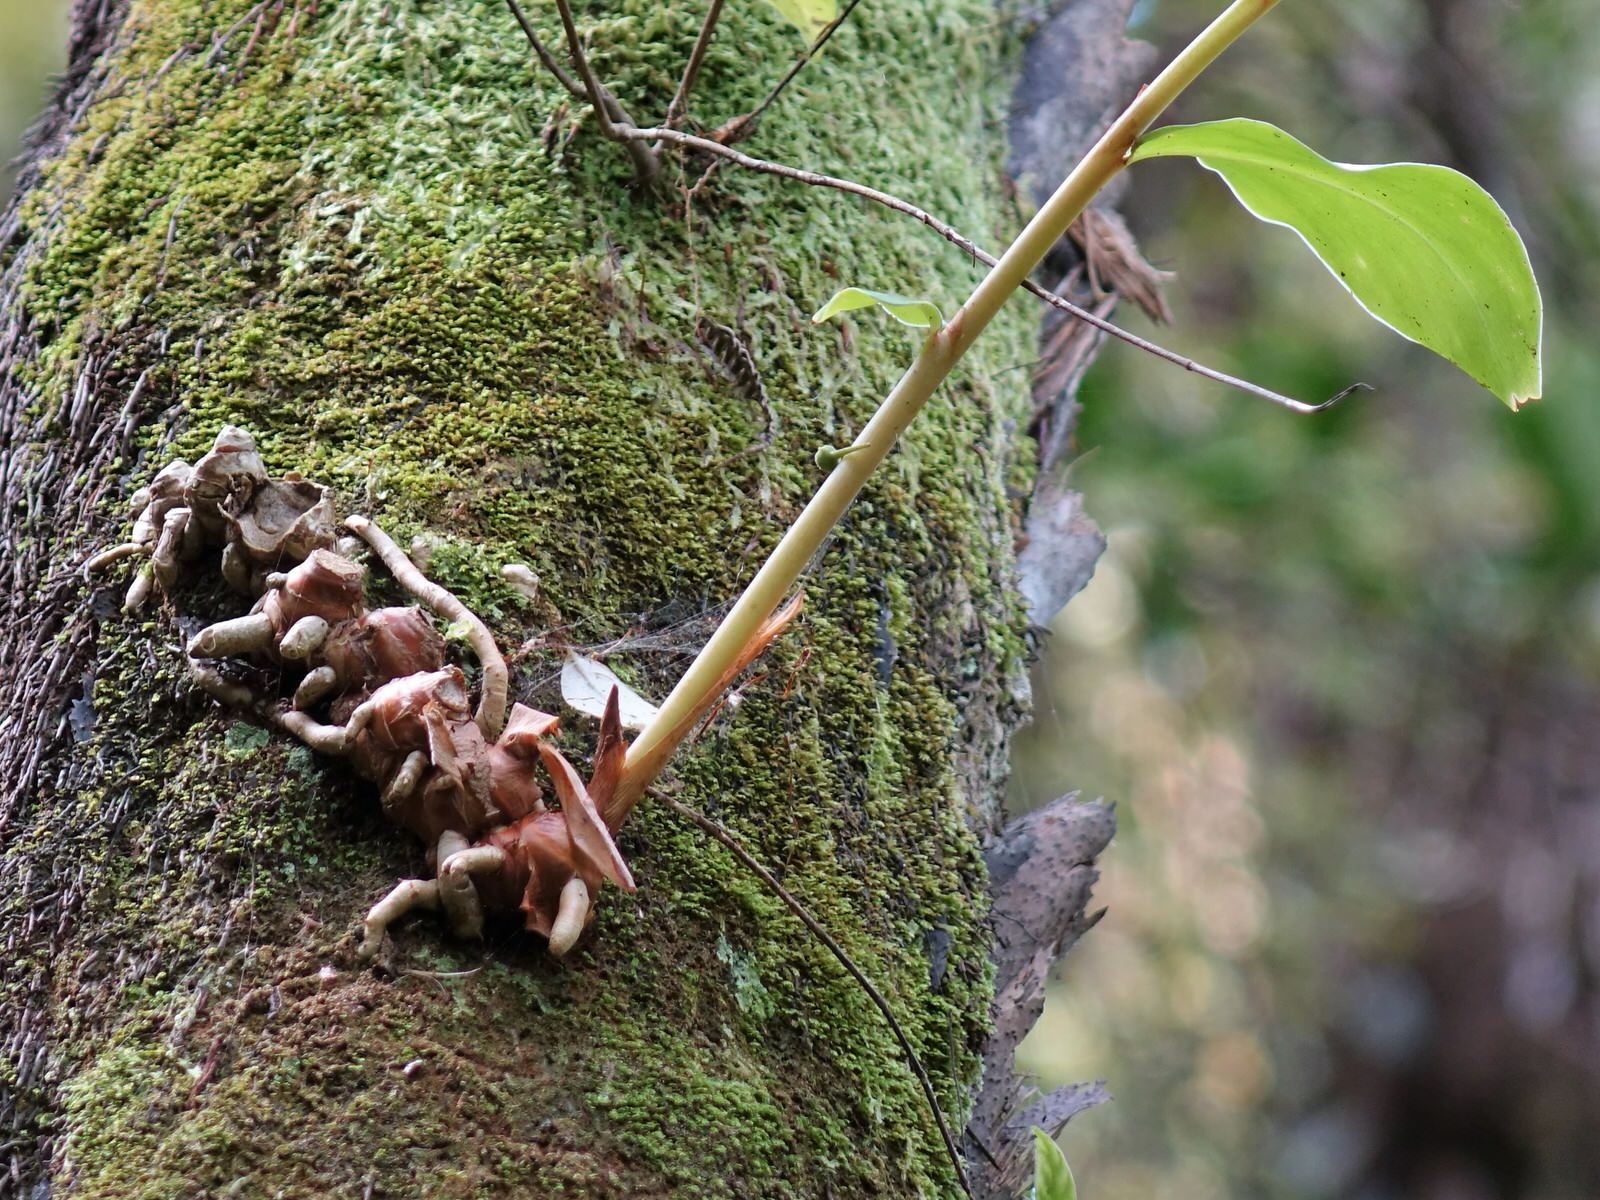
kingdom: Plantae
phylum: Tracheophyta
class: Liliopsida
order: Zingiberales
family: Zingiberaceae
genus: Hedychium
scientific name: Hedychium gardnerianum
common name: Himalayan ginger
